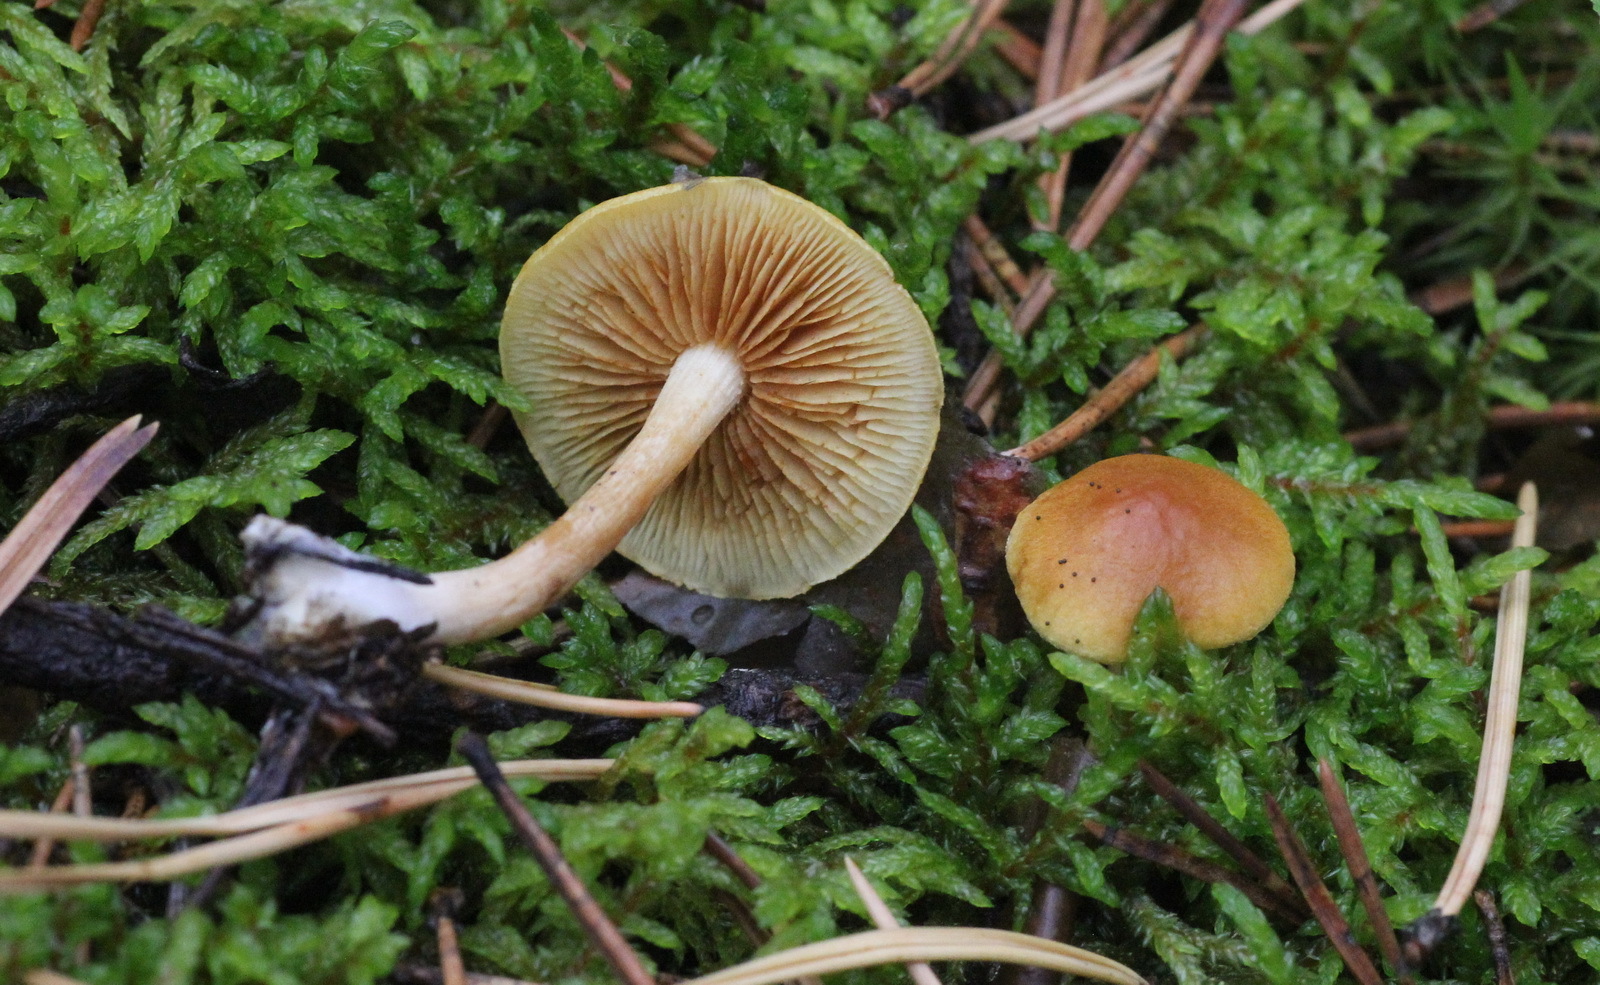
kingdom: Fungi
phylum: Basidiomycota
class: Agaricomycetes
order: Agaricales
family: Hymenogastraceae
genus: Gymnopilus
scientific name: Gymnopilus sapineus
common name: Scaly rustgill
